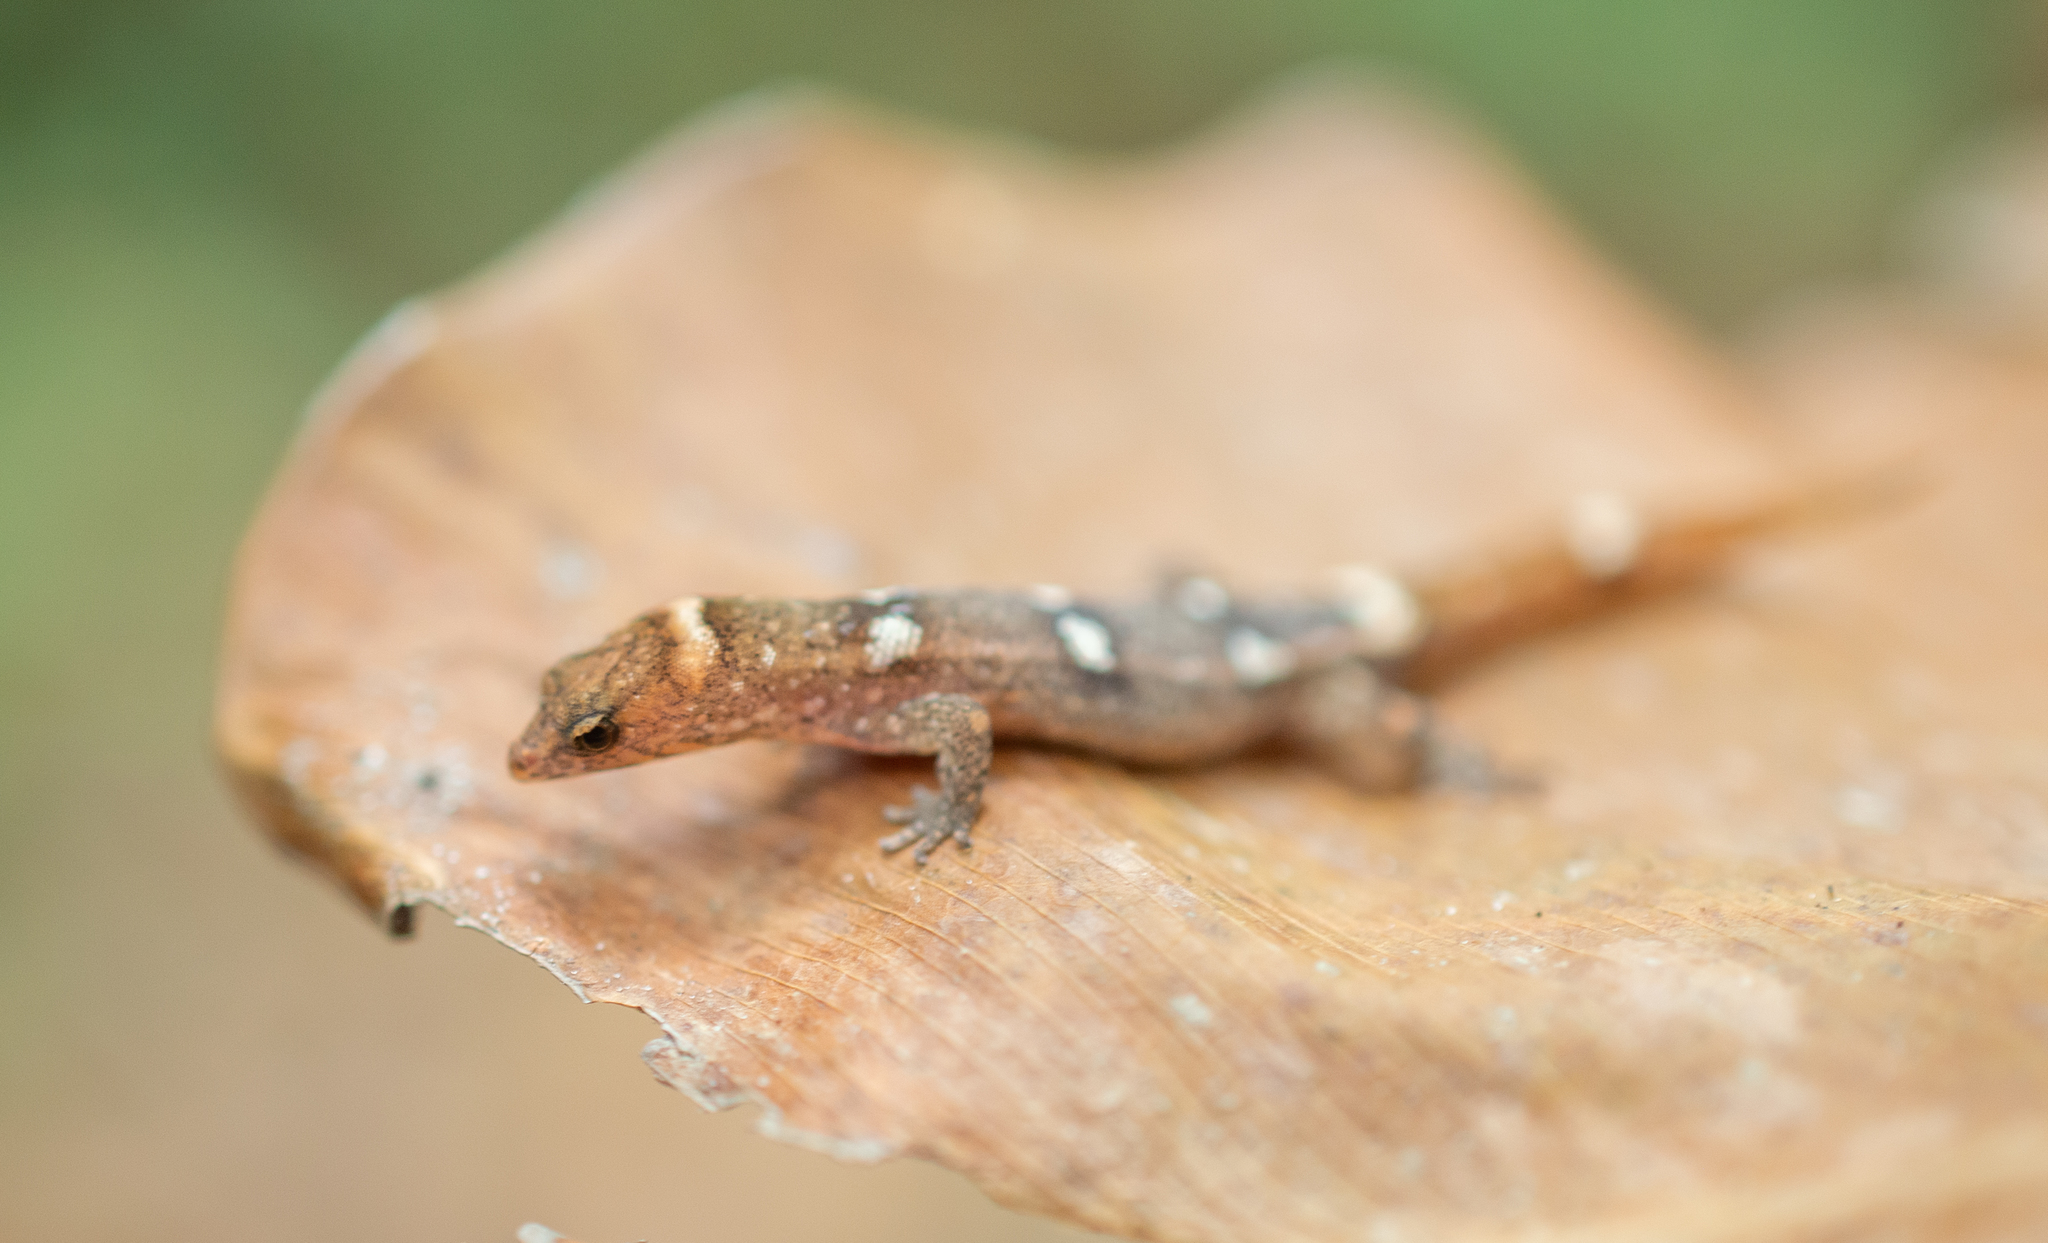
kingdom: Animalia
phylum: Chordata
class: Squamata
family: Sphaerodactylidae
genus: Coleodactylus
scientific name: Coleodactylus septentrionalis
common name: Ilha maracá gecko
